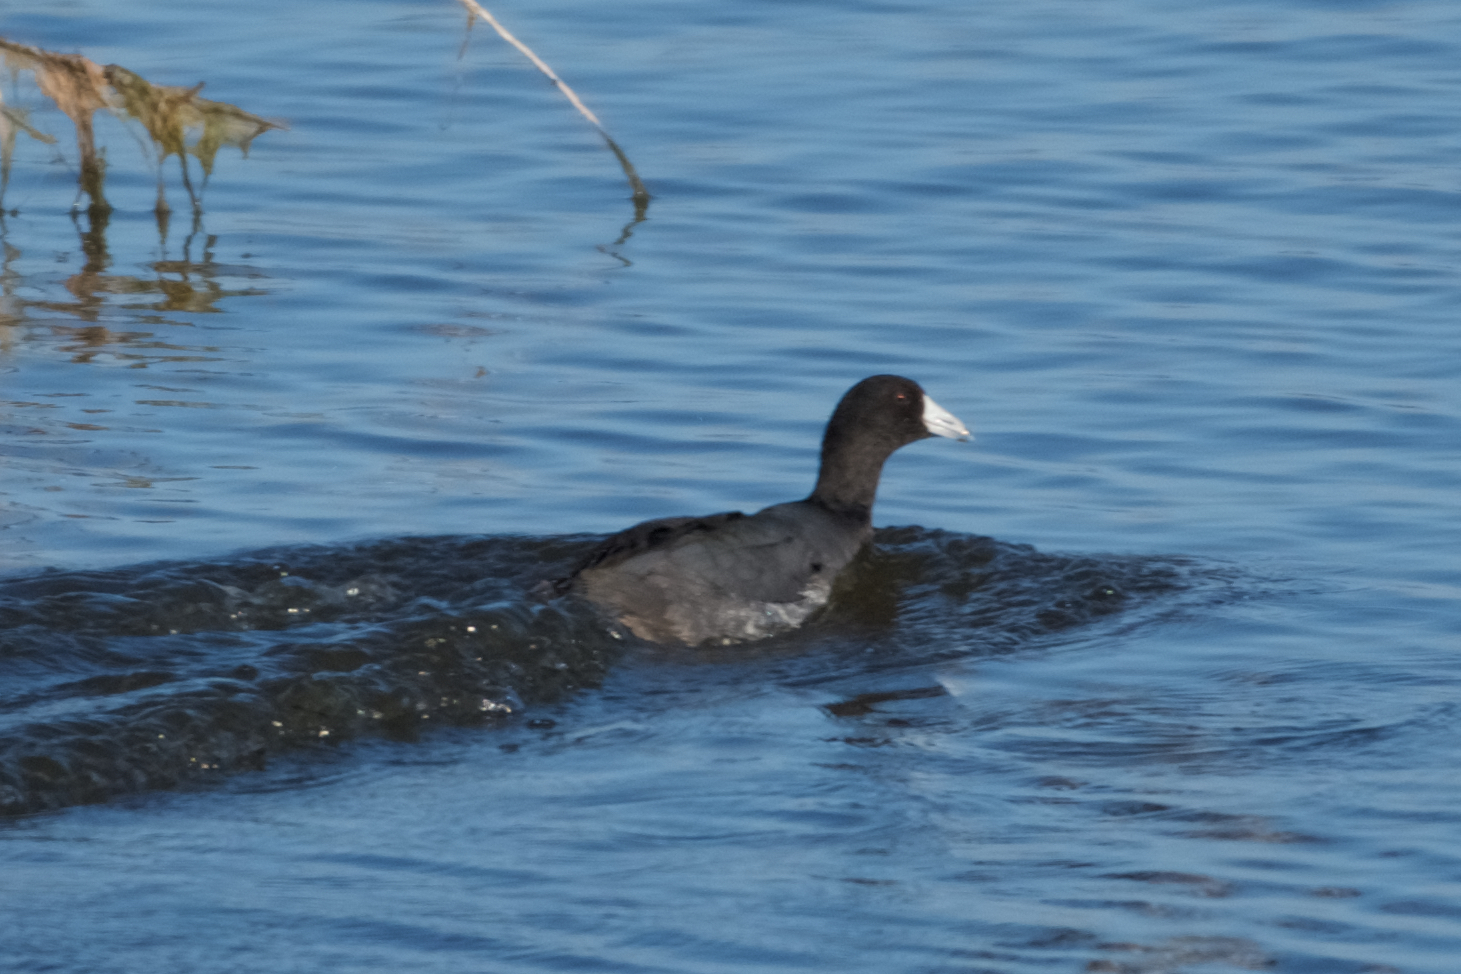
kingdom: Animalia
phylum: Chordata
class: Aves
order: Gruiformes
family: Rallidae
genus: Fulica
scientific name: Fulica americana
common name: American coot
